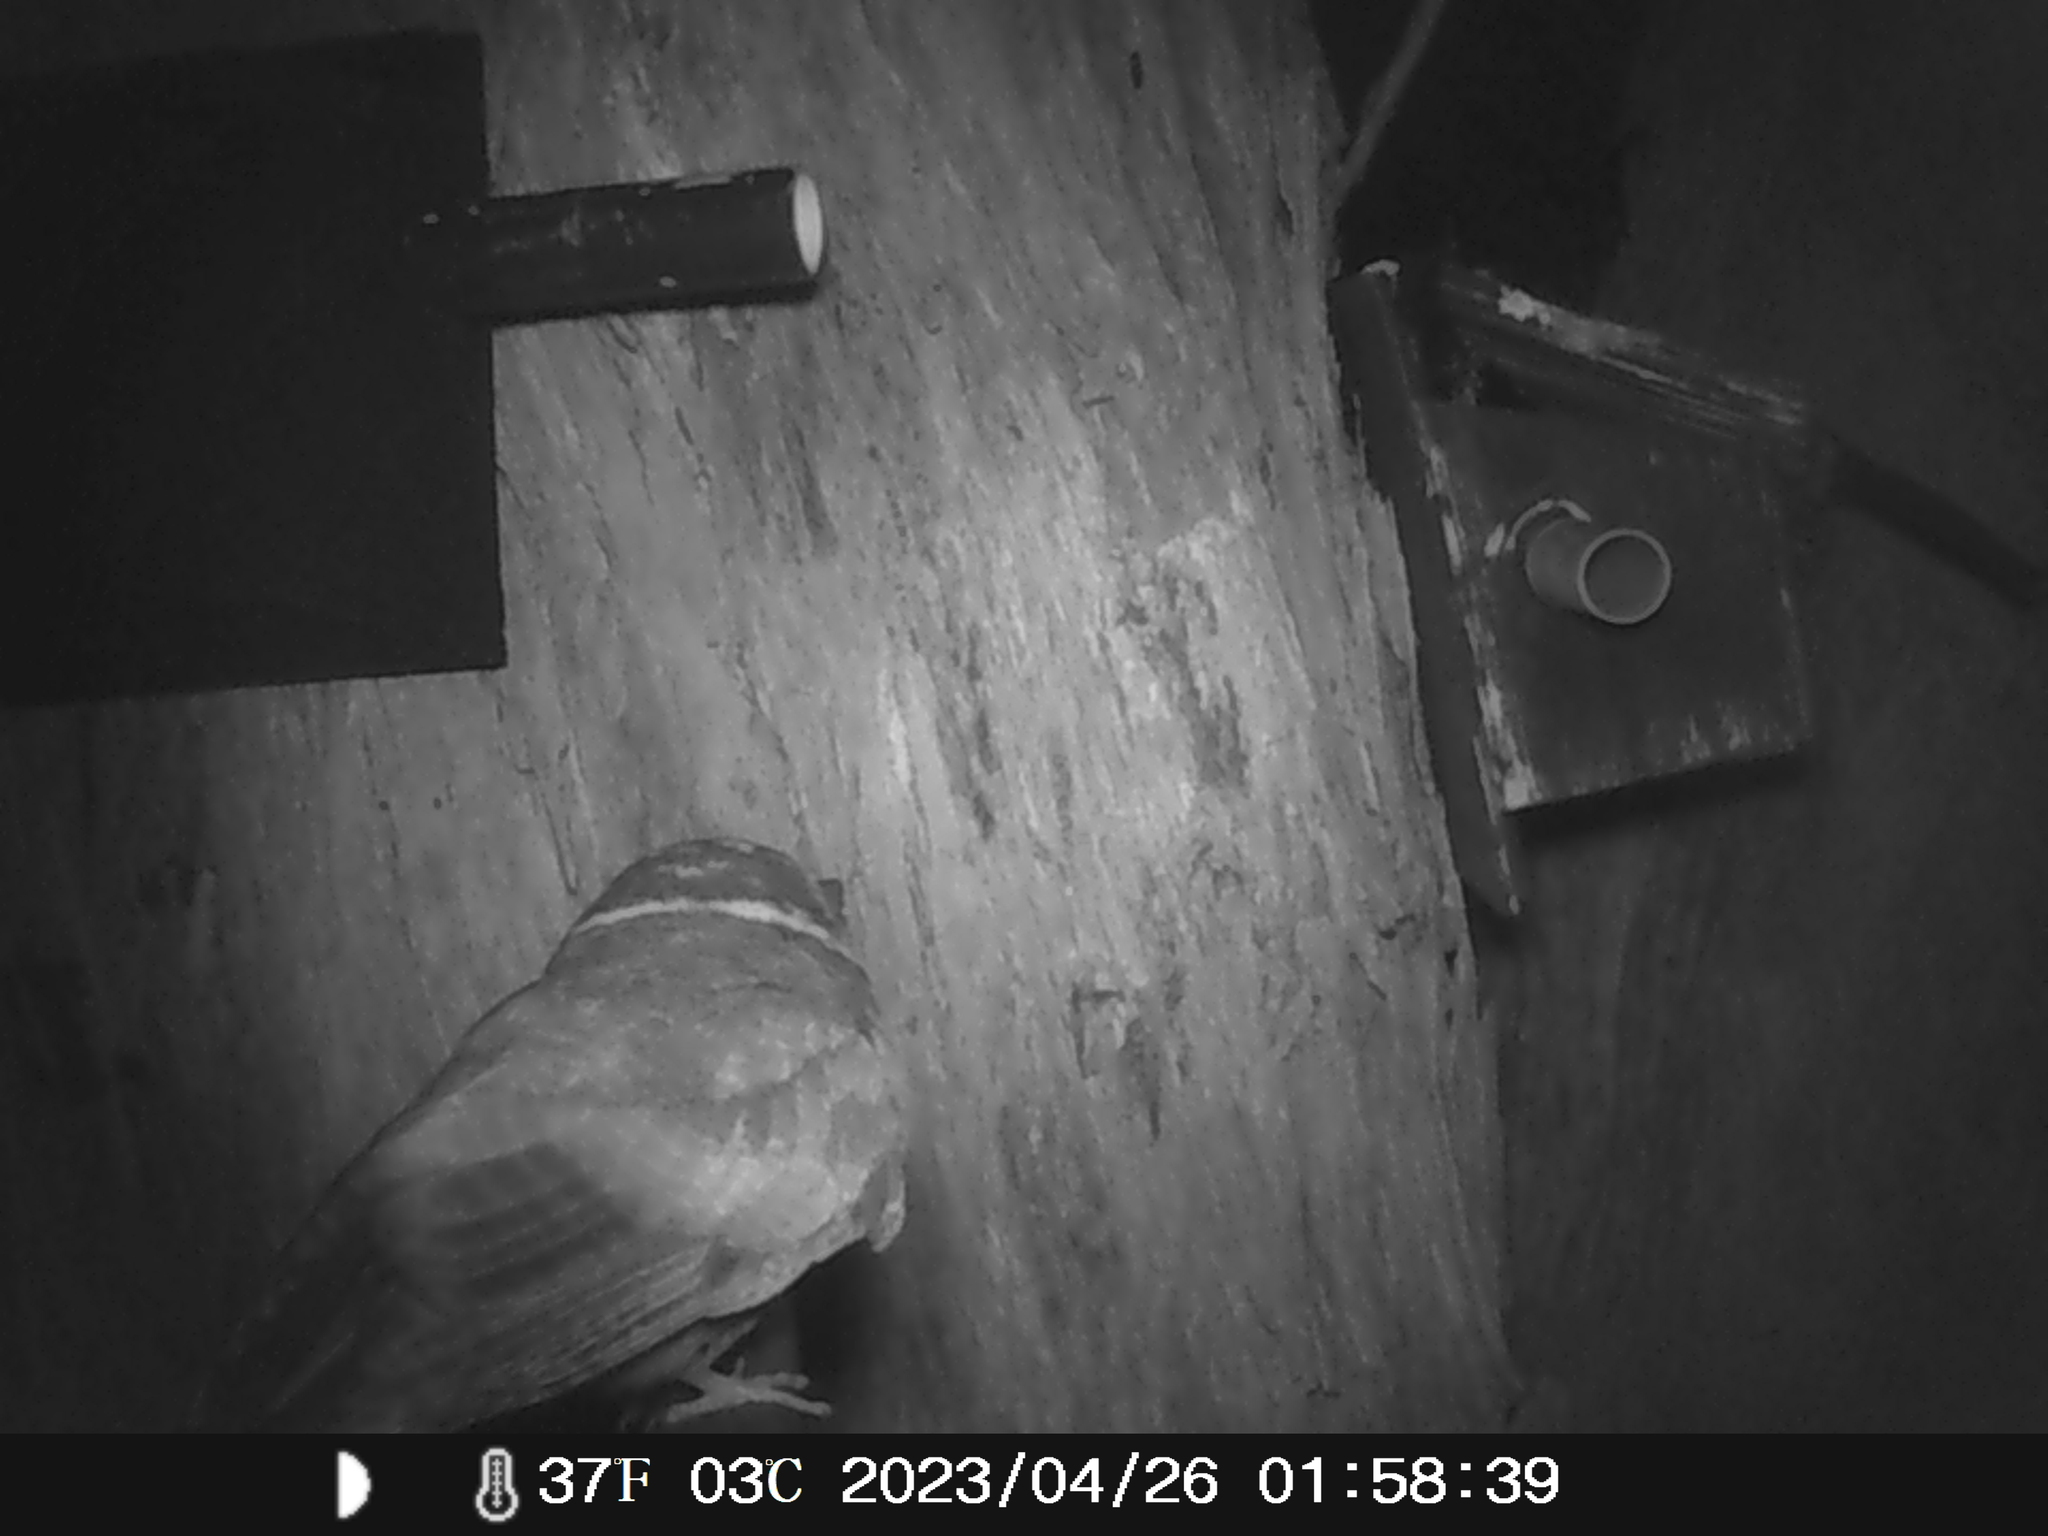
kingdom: Animalia
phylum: Chordata
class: Aves
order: Apodiformes
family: Aegothelidae
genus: Aegotheles
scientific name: Aegotheles cristatus
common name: Australian owlet-nightjar
